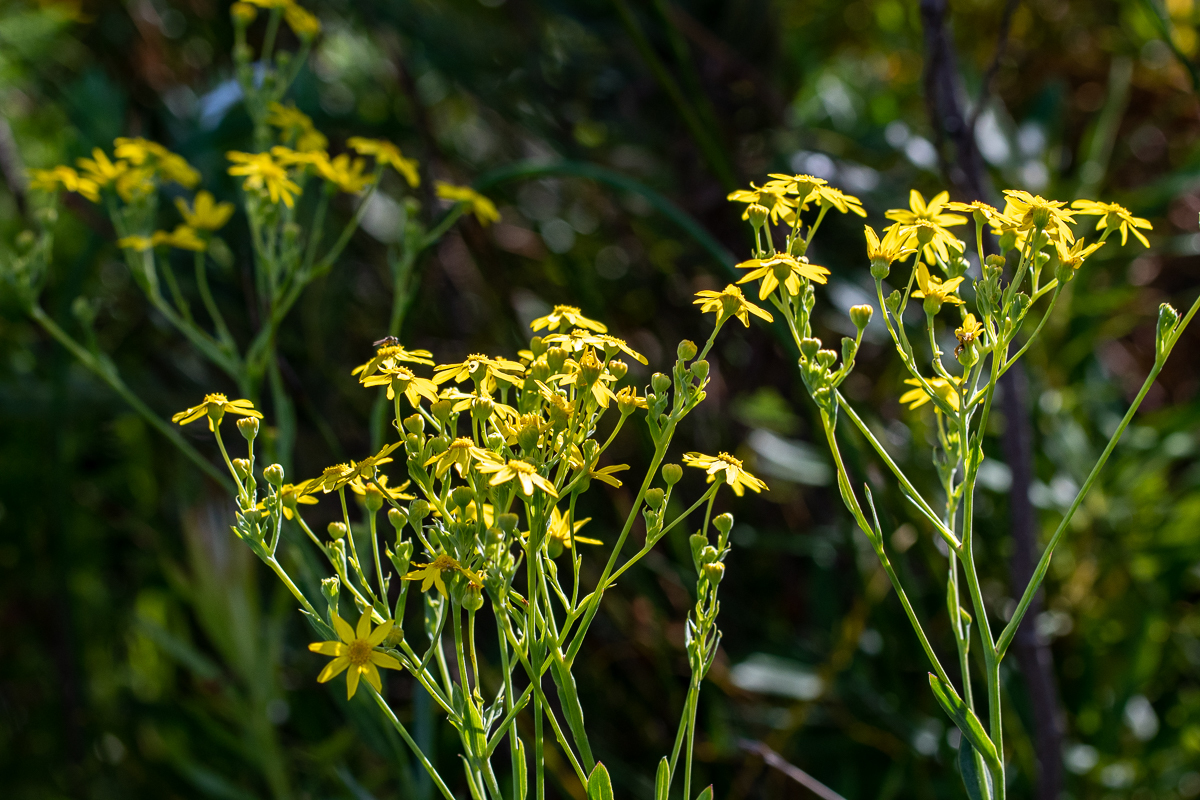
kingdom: Plantae
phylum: Tracheophyta
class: Magnoliopsida
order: Asterales
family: Asteraceae
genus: Othonna
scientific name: Othonna quinquedentata
